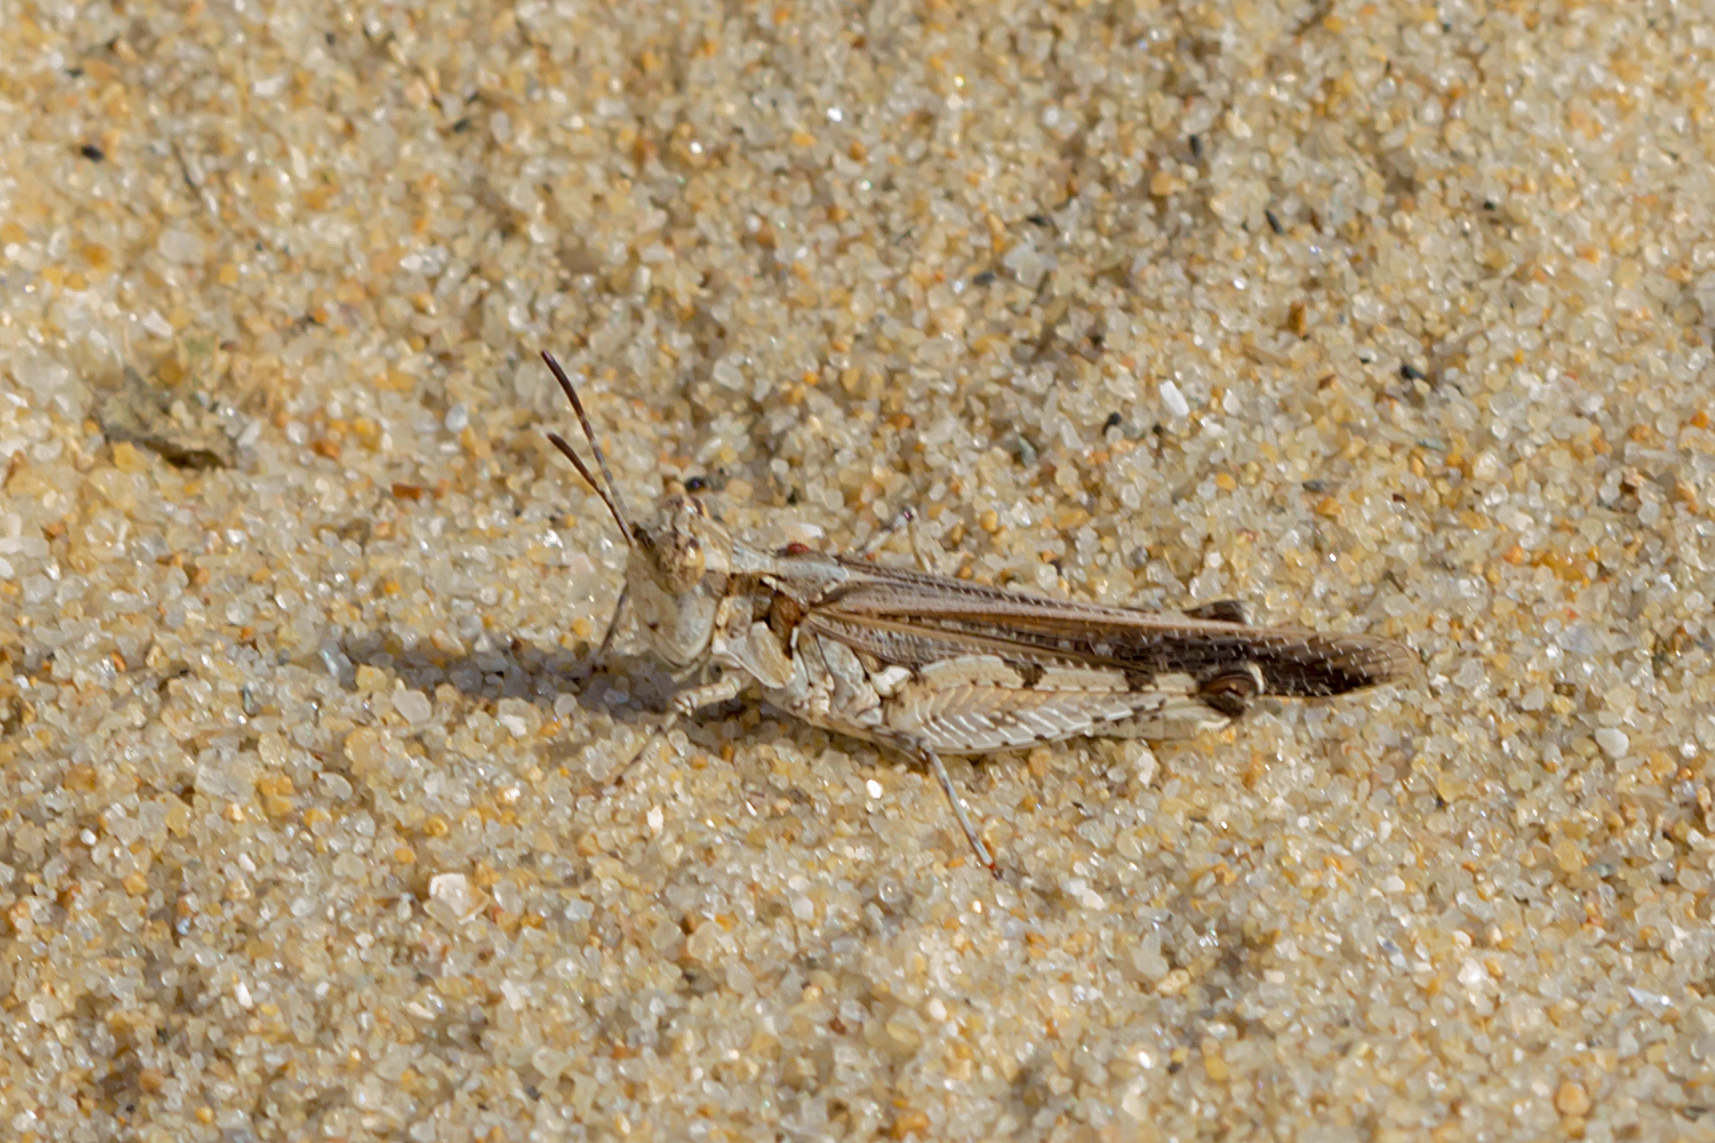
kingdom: Animalia
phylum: Arthropoda
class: Insecta
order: Orthoptera
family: Acrididae
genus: Pycnostictus
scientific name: Pycnostictus seriatus
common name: Common bandwing
